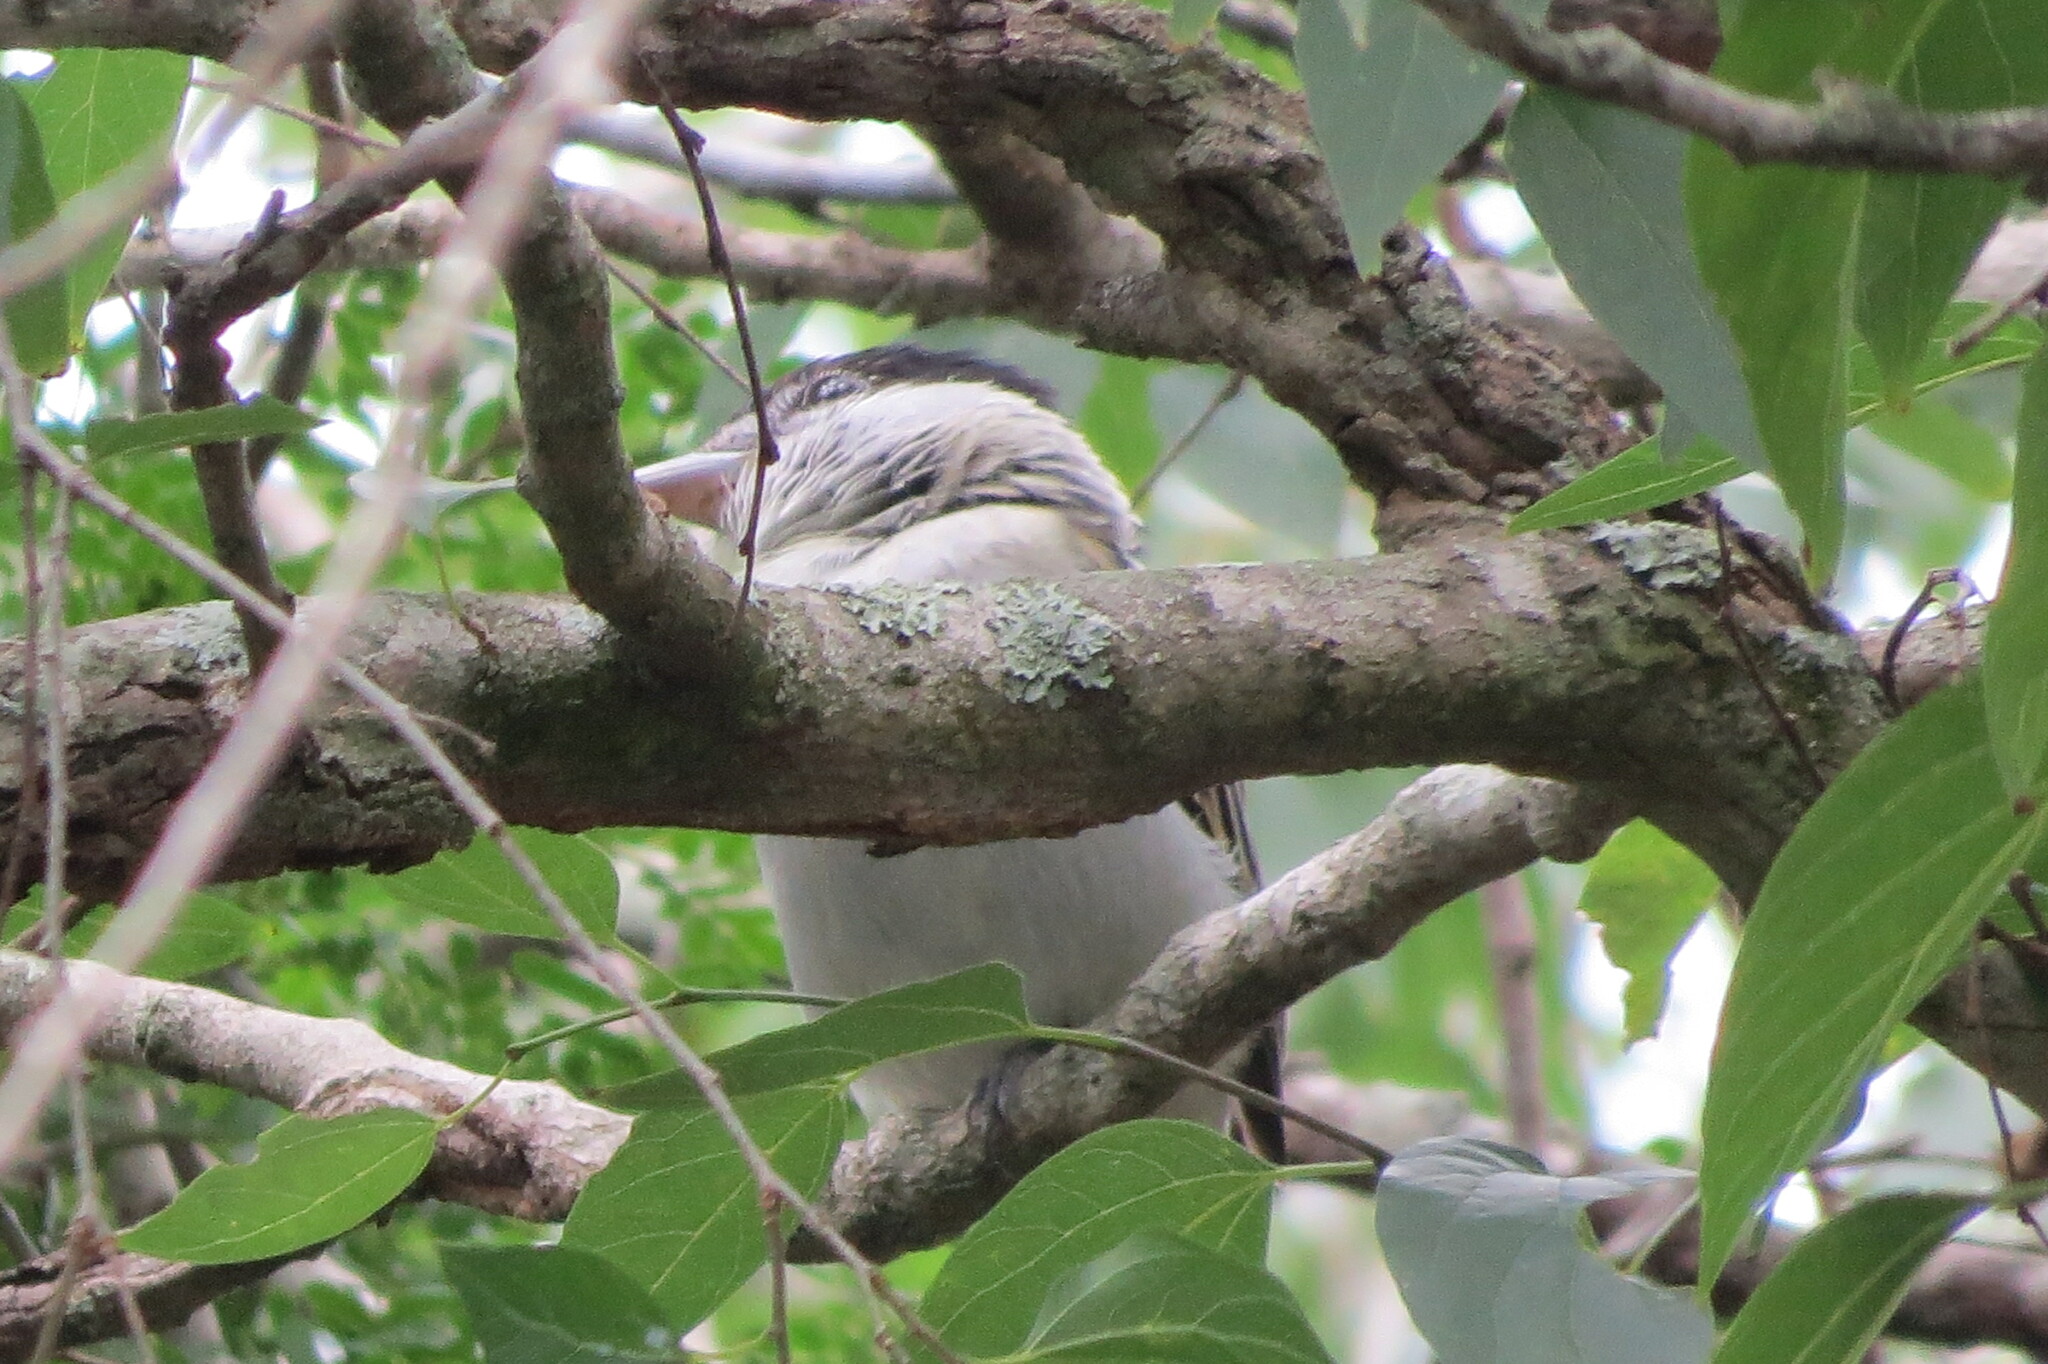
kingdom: Animalia
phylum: Chordata
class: Aves
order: Passeriformes
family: Cotingidae
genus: Pachyramphus
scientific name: Pachyramphus major
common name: Gray-collared becard
